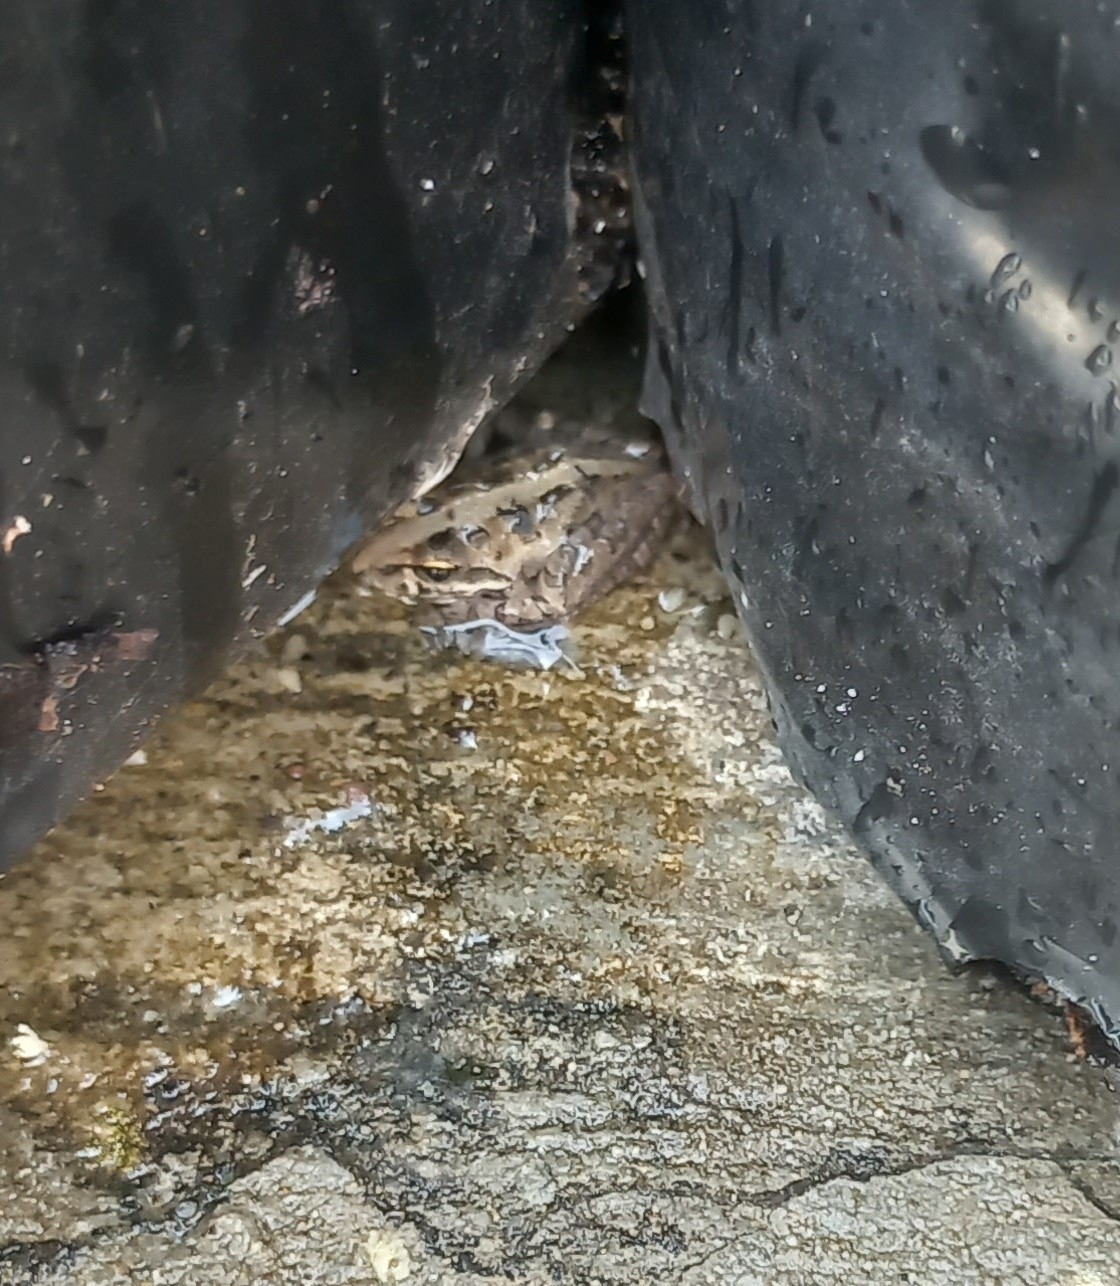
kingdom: Animalia
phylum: Chordata
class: Amphibia
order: Anura
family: Pyxicephalidae
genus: Strongylopus
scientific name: Strongylopus grayii
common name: Gray's stream frog
